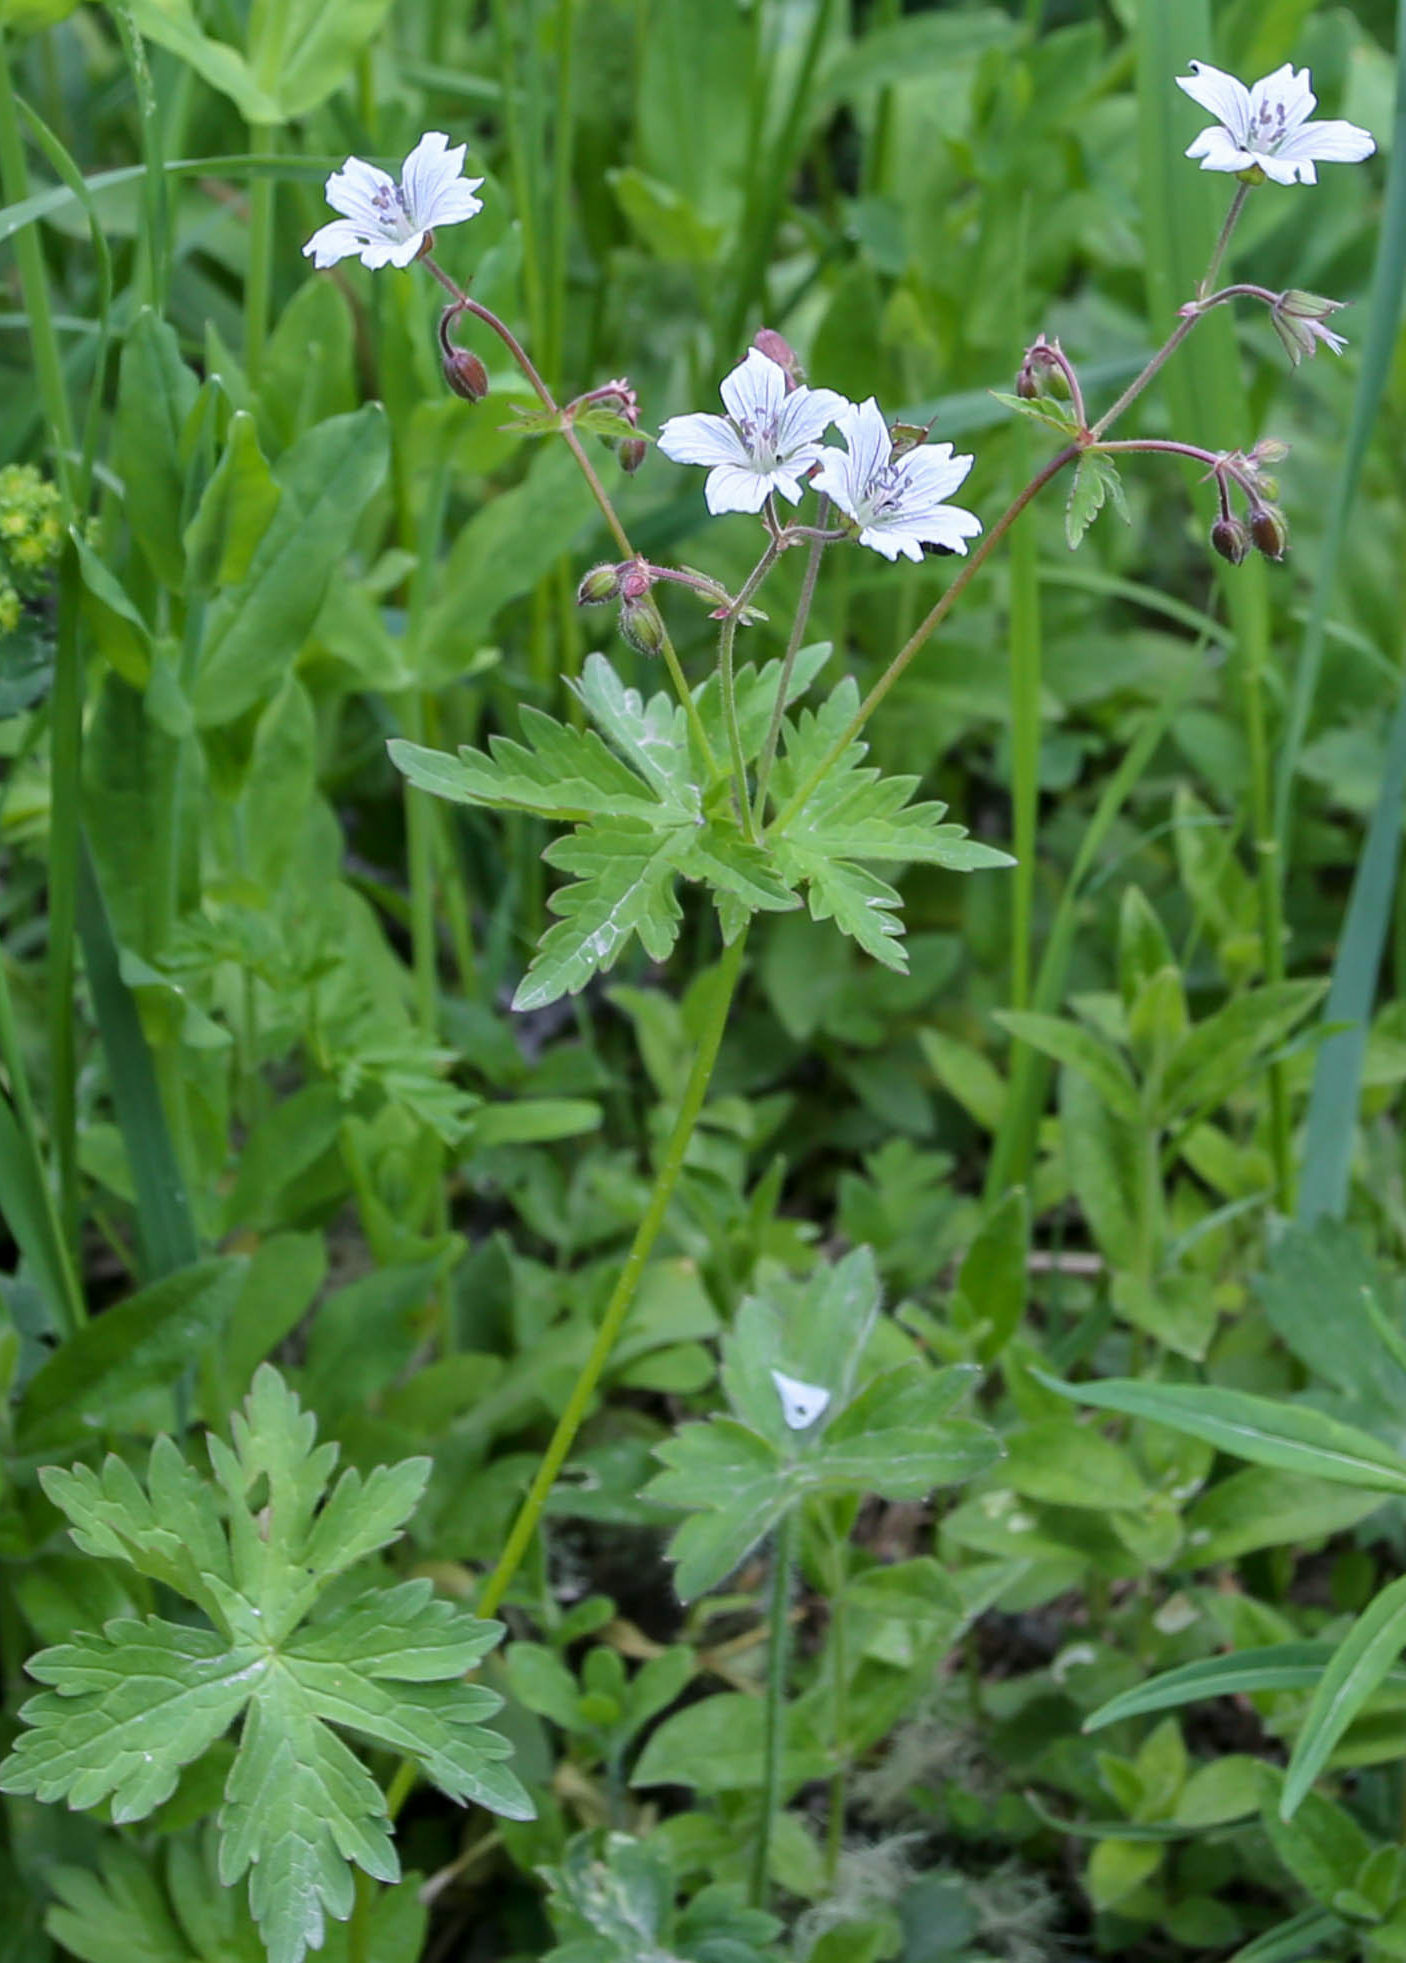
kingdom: Plantae
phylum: Tracheophyta
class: Magnoliopsida
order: Geraniales
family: Geraniaceae
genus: Geranium
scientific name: Geranium sylvaticum
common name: Wood crane's-bill
